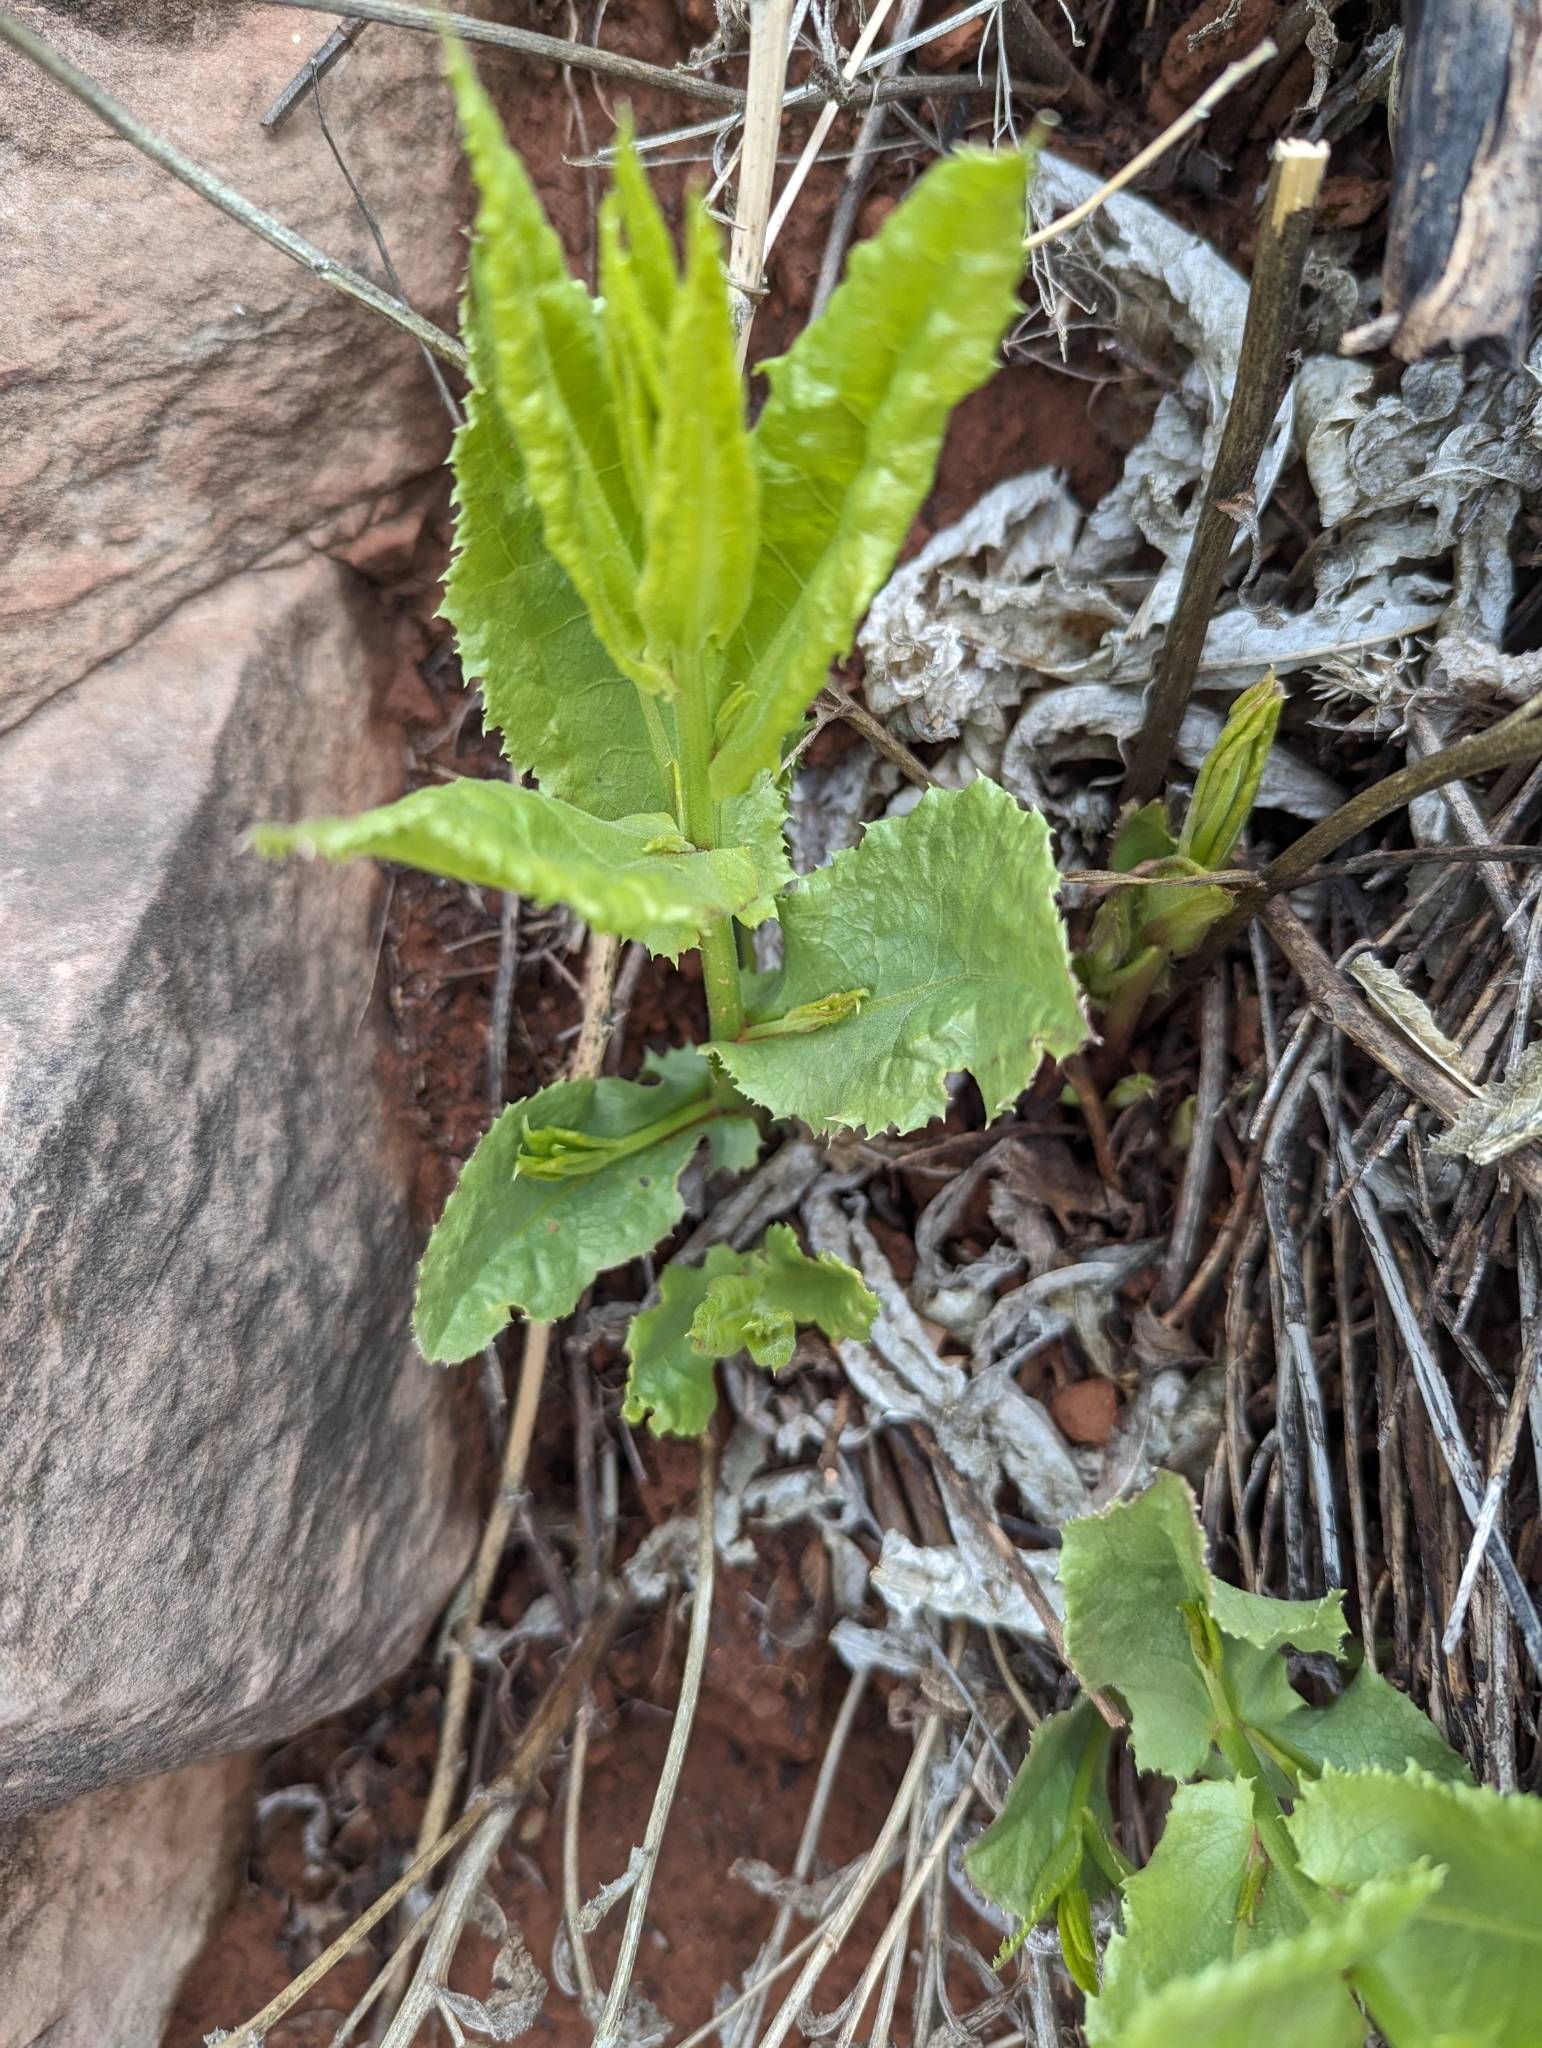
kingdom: Plantae
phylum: Tracheophyta
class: Magnoliopsida
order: Asterales
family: Asteraceae
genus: Acourtia
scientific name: Acourtia wrightii
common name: Brownfoot
